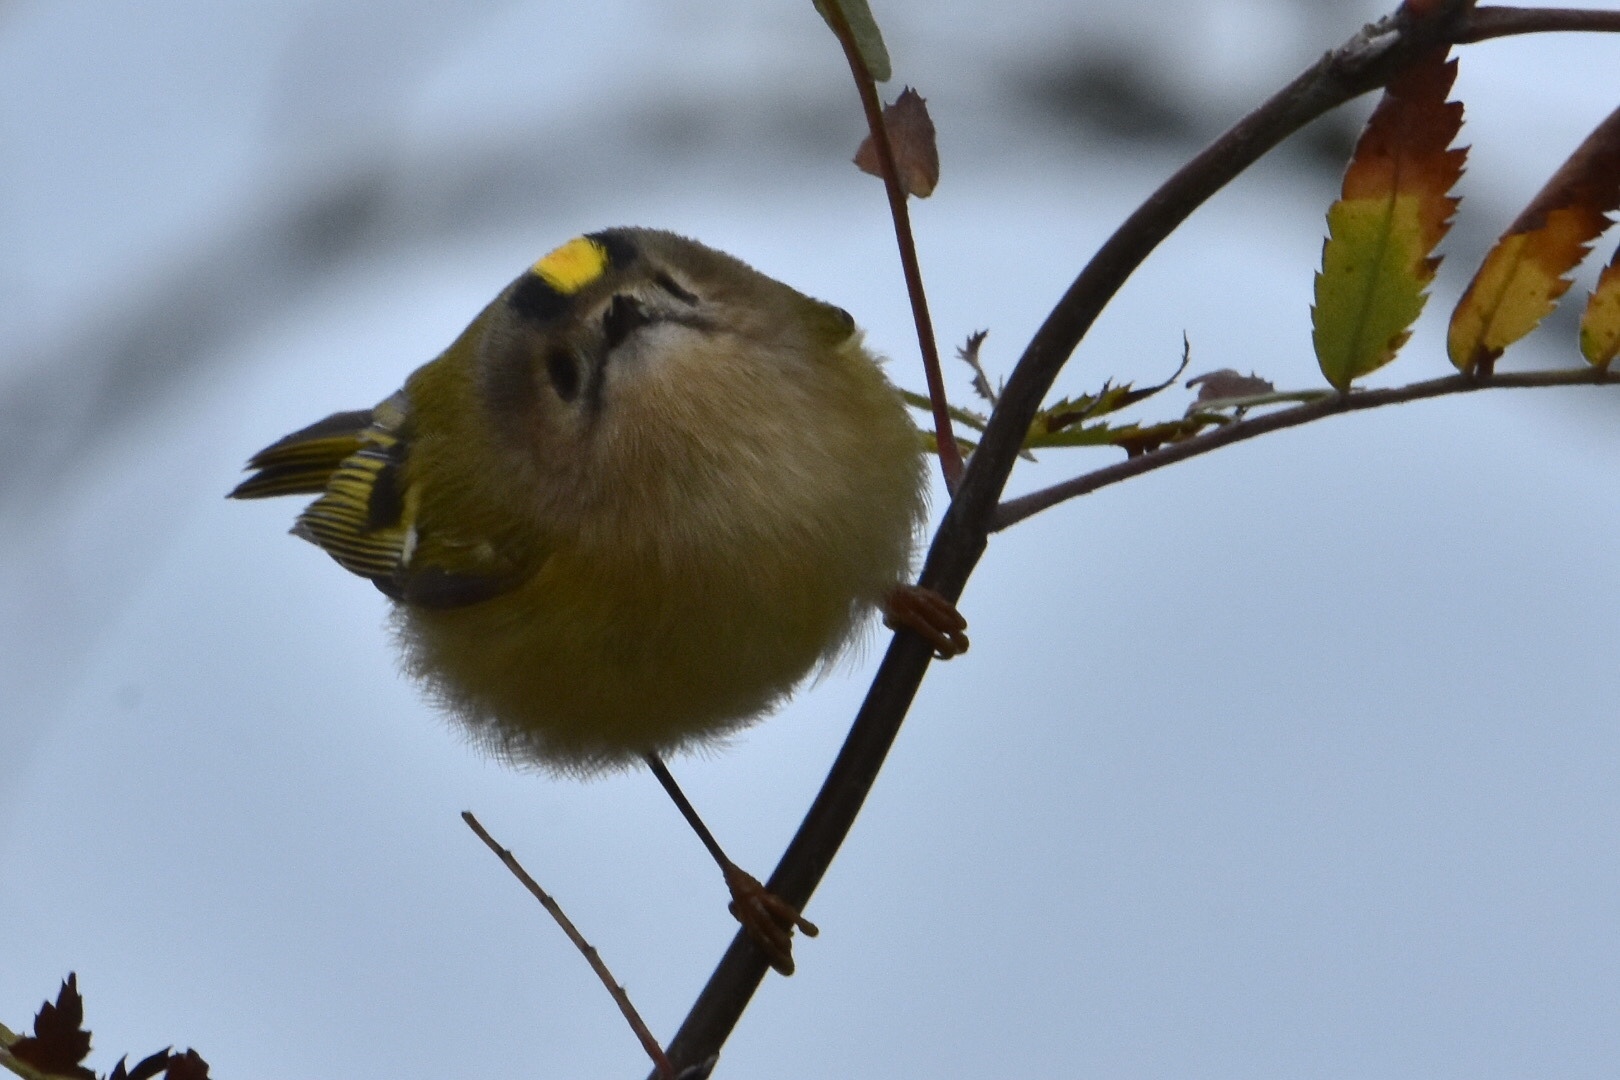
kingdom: Animalia
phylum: Chordata
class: Aves
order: Passeriformes
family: Regulidae
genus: Regulus
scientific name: Regulus regulus
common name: Goldcrest
